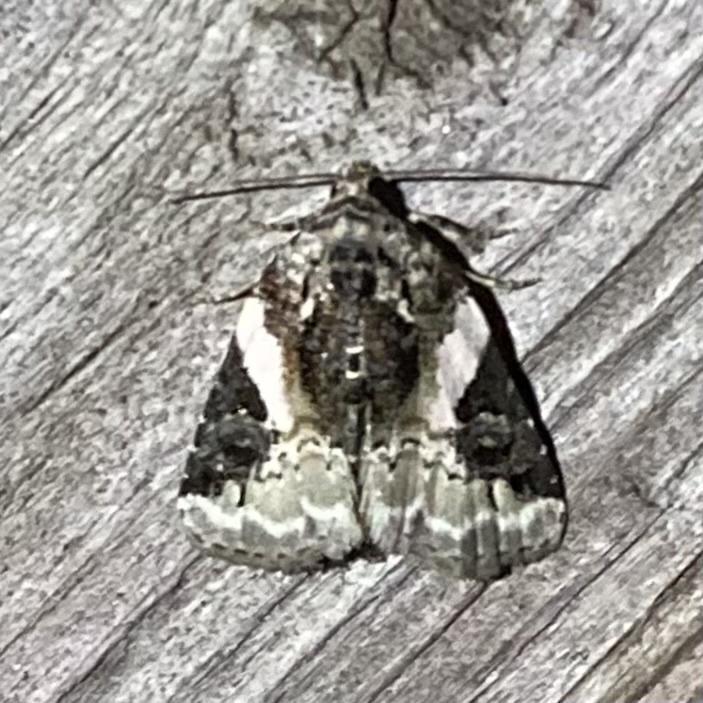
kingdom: Animalia
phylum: Arthropoda
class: Insecta
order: Lepidoptera
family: Noctuidae
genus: Pseudeustrotia
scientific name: Pseudeustrotia carneola
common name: Pink-barred lithacodia moth
